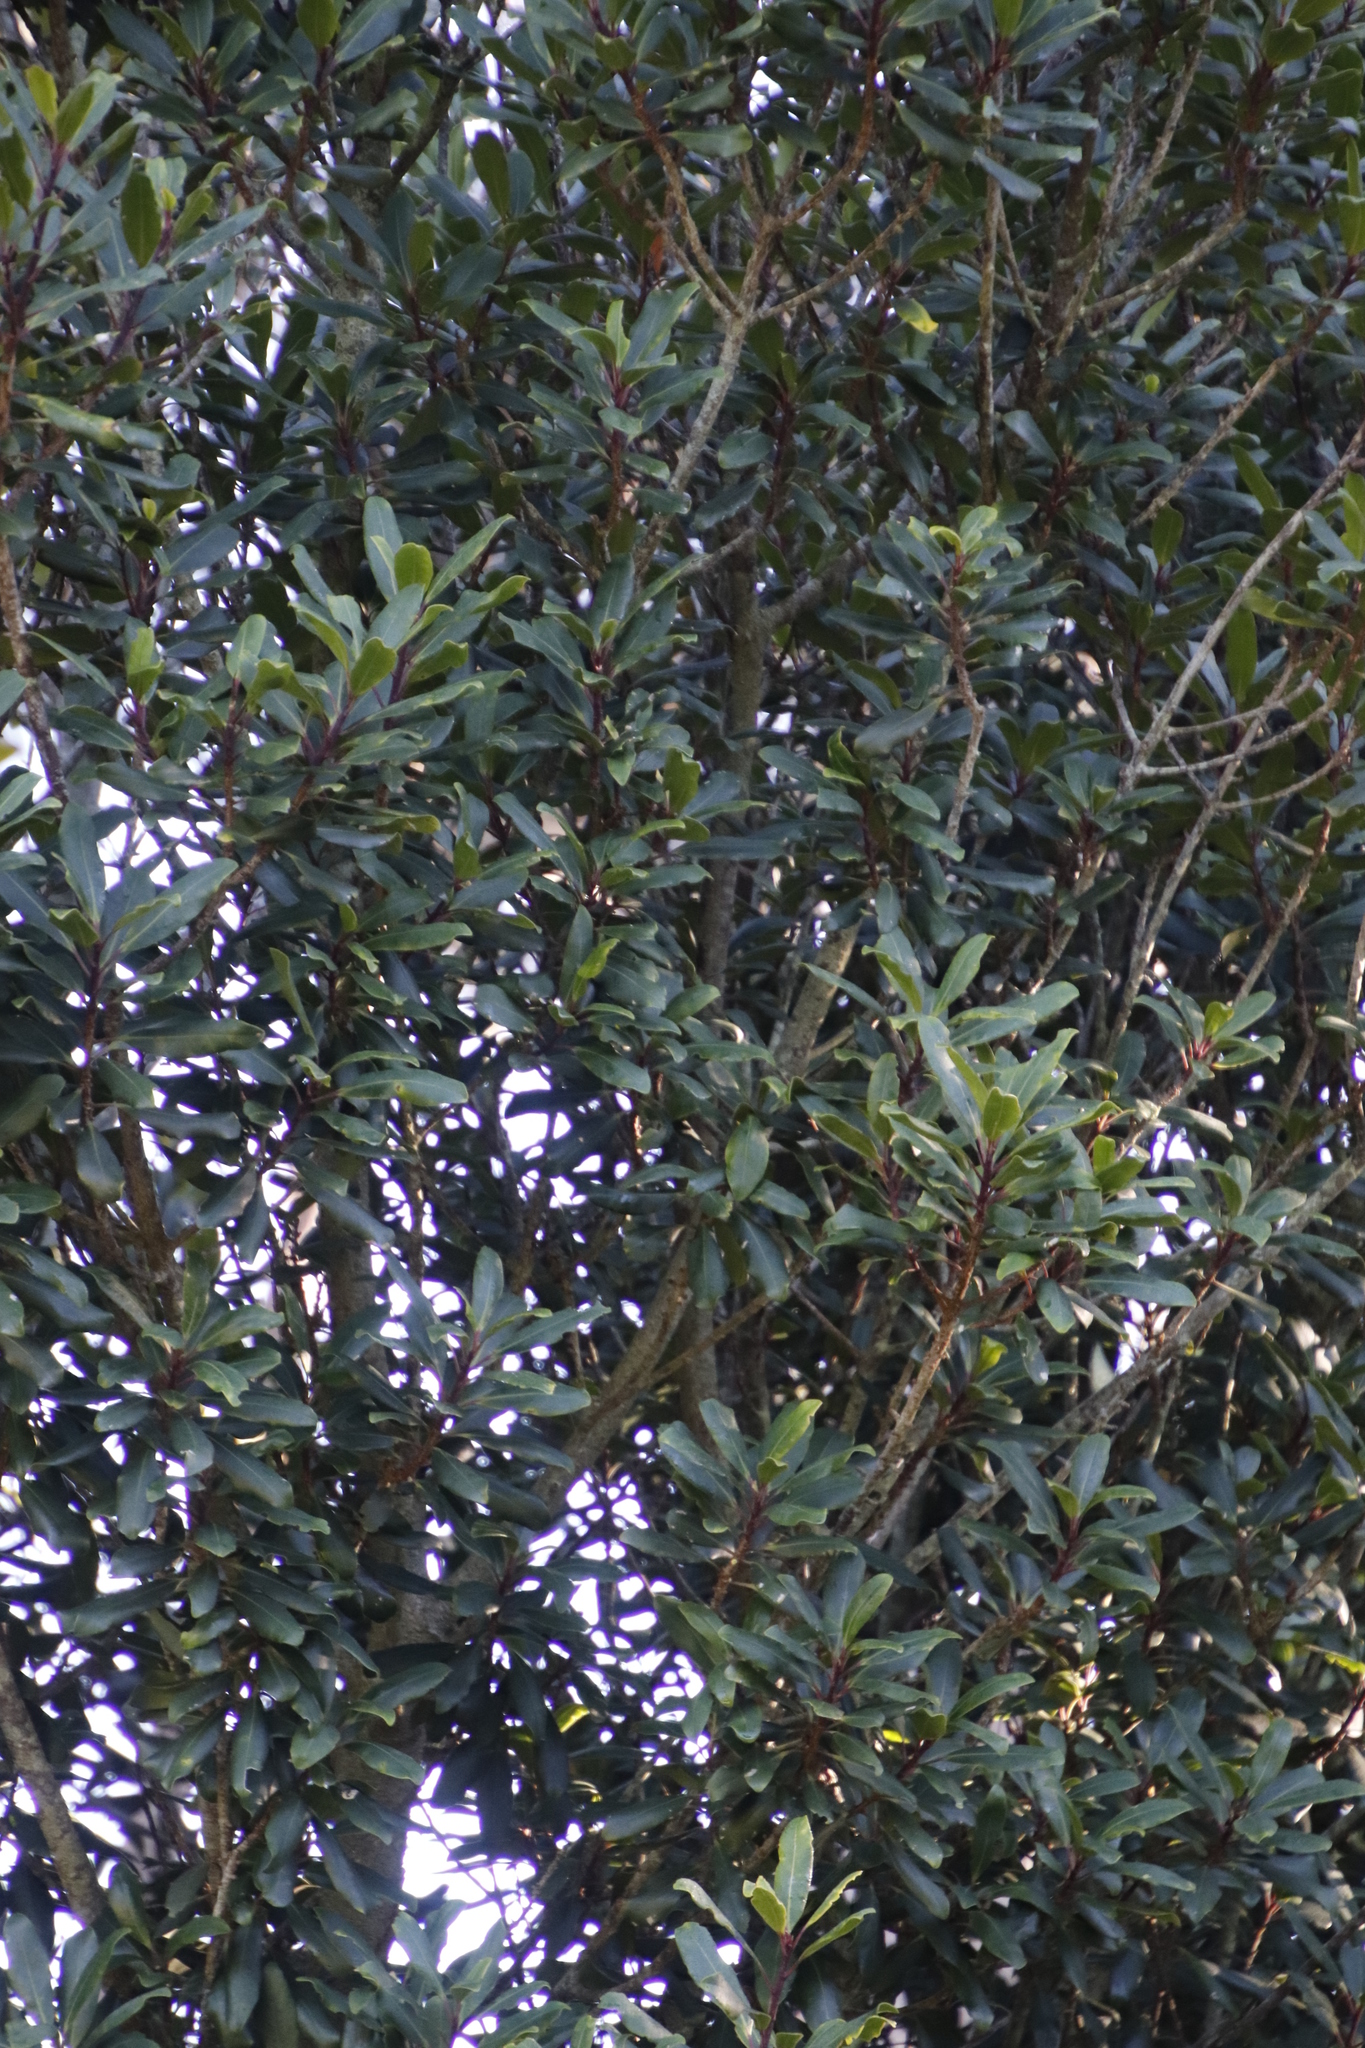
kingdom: Plantae
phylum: Tracheophyta
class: Magnoliopsida
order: Ericales
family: Primulaceae
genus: Myrsine
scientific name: Myrsine melanophloeos
